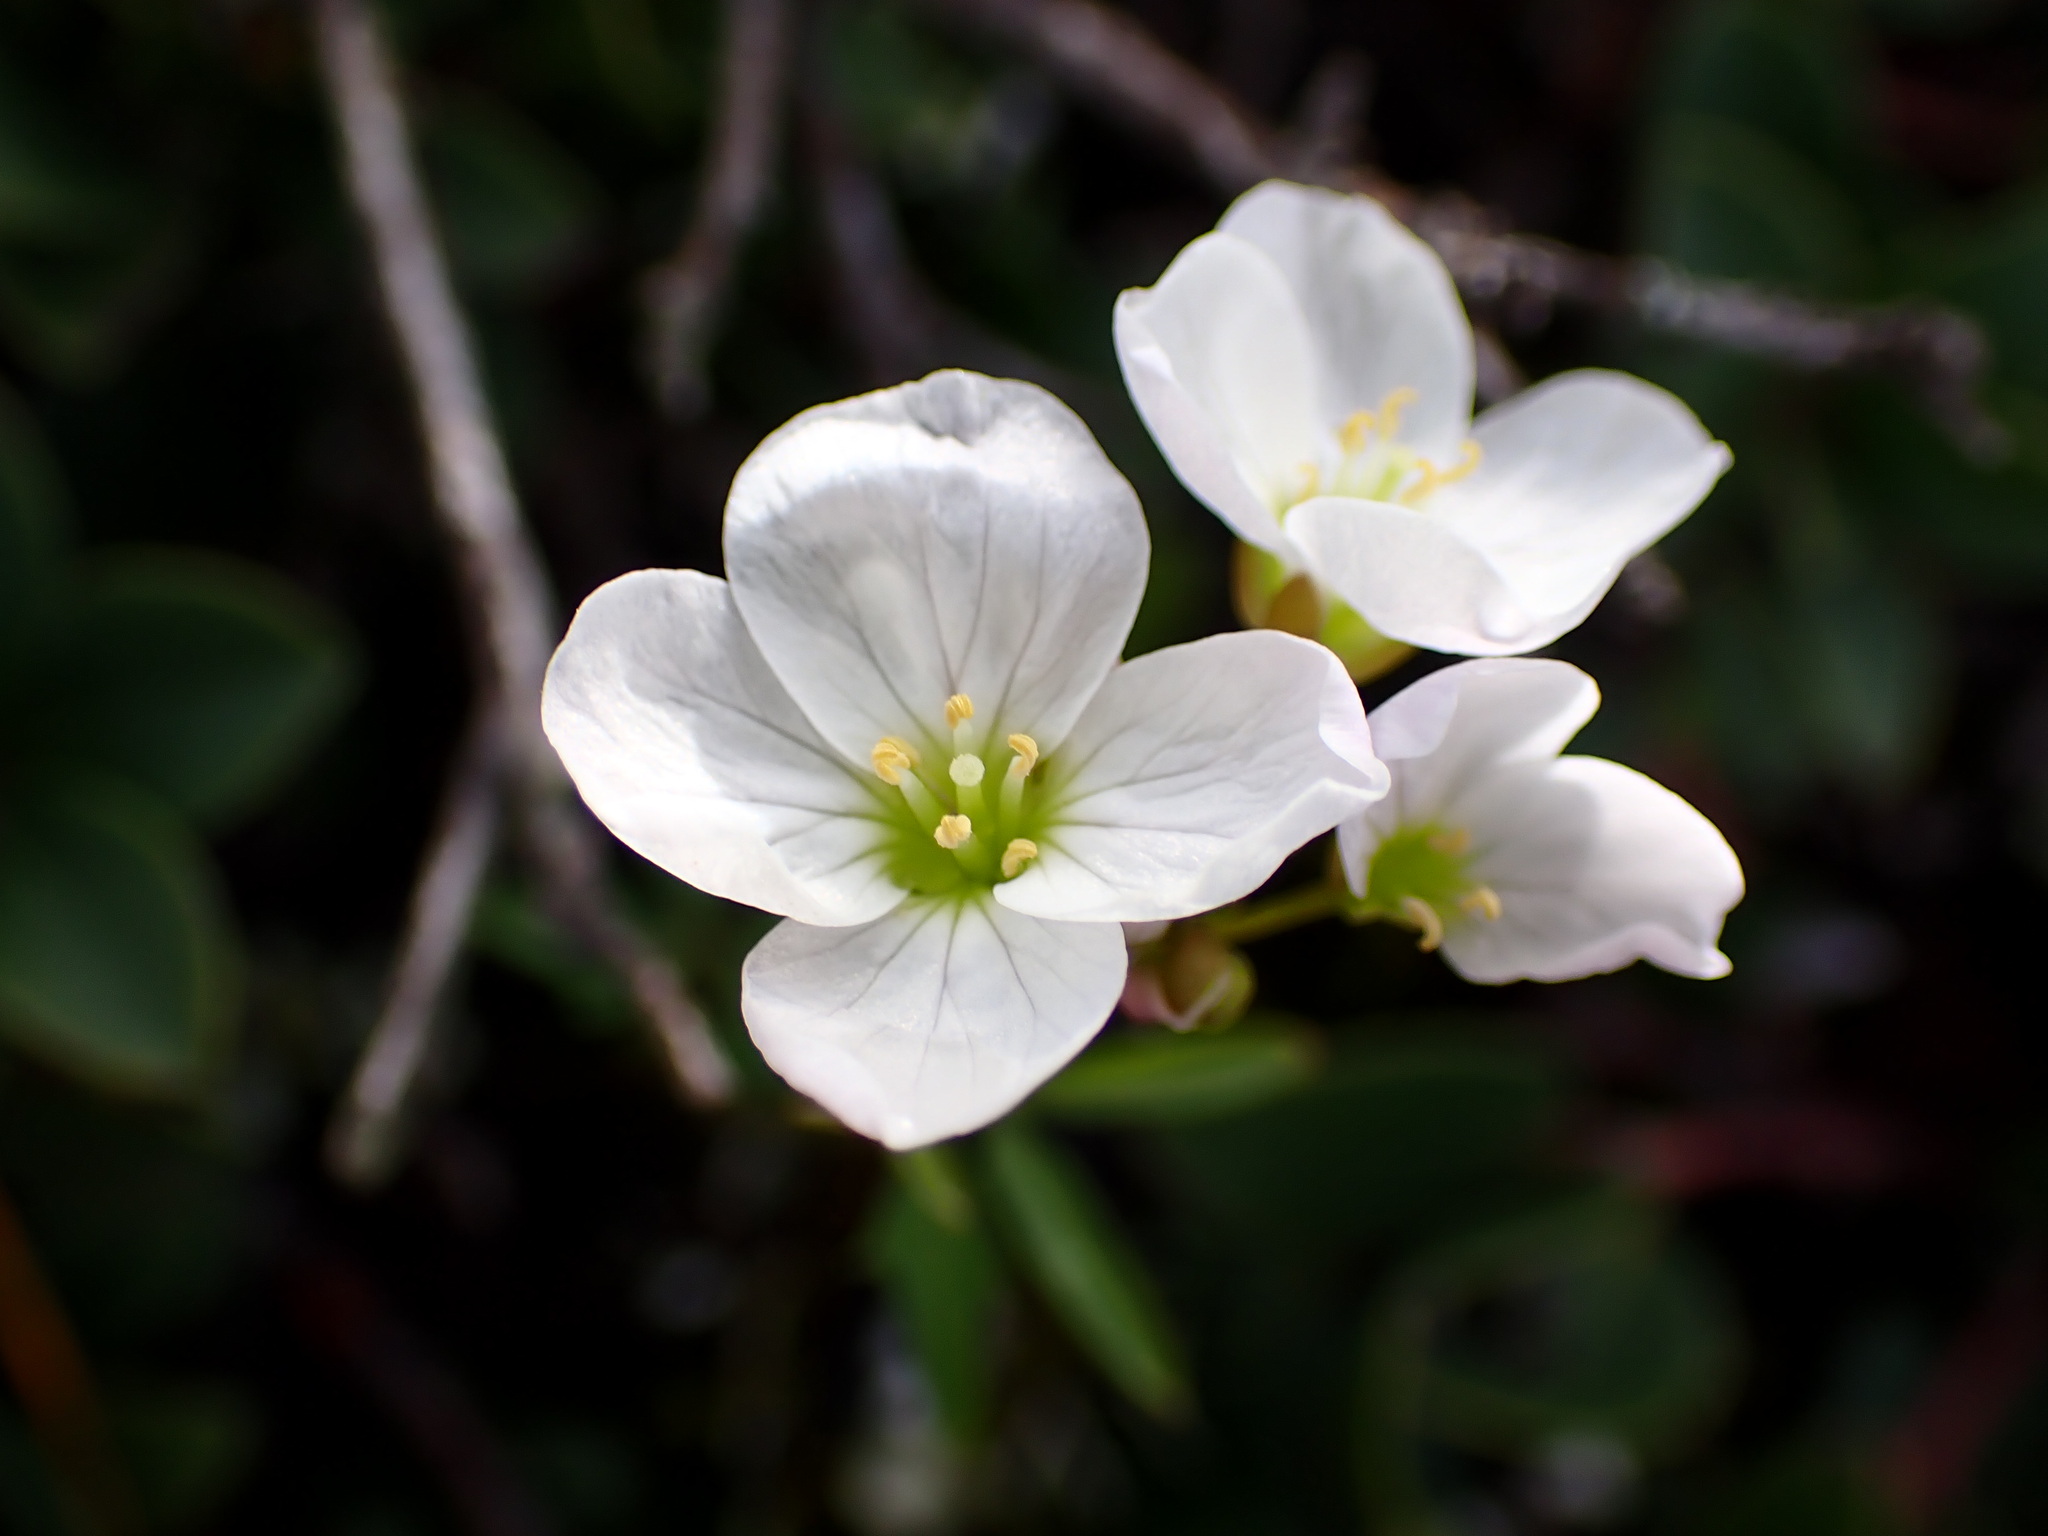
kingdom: Plantae
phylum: Tracheophyta
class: Magnoliopsida
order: Brassicales
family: Brassicaceae
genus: Cardamine
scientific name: Cardamine californica
